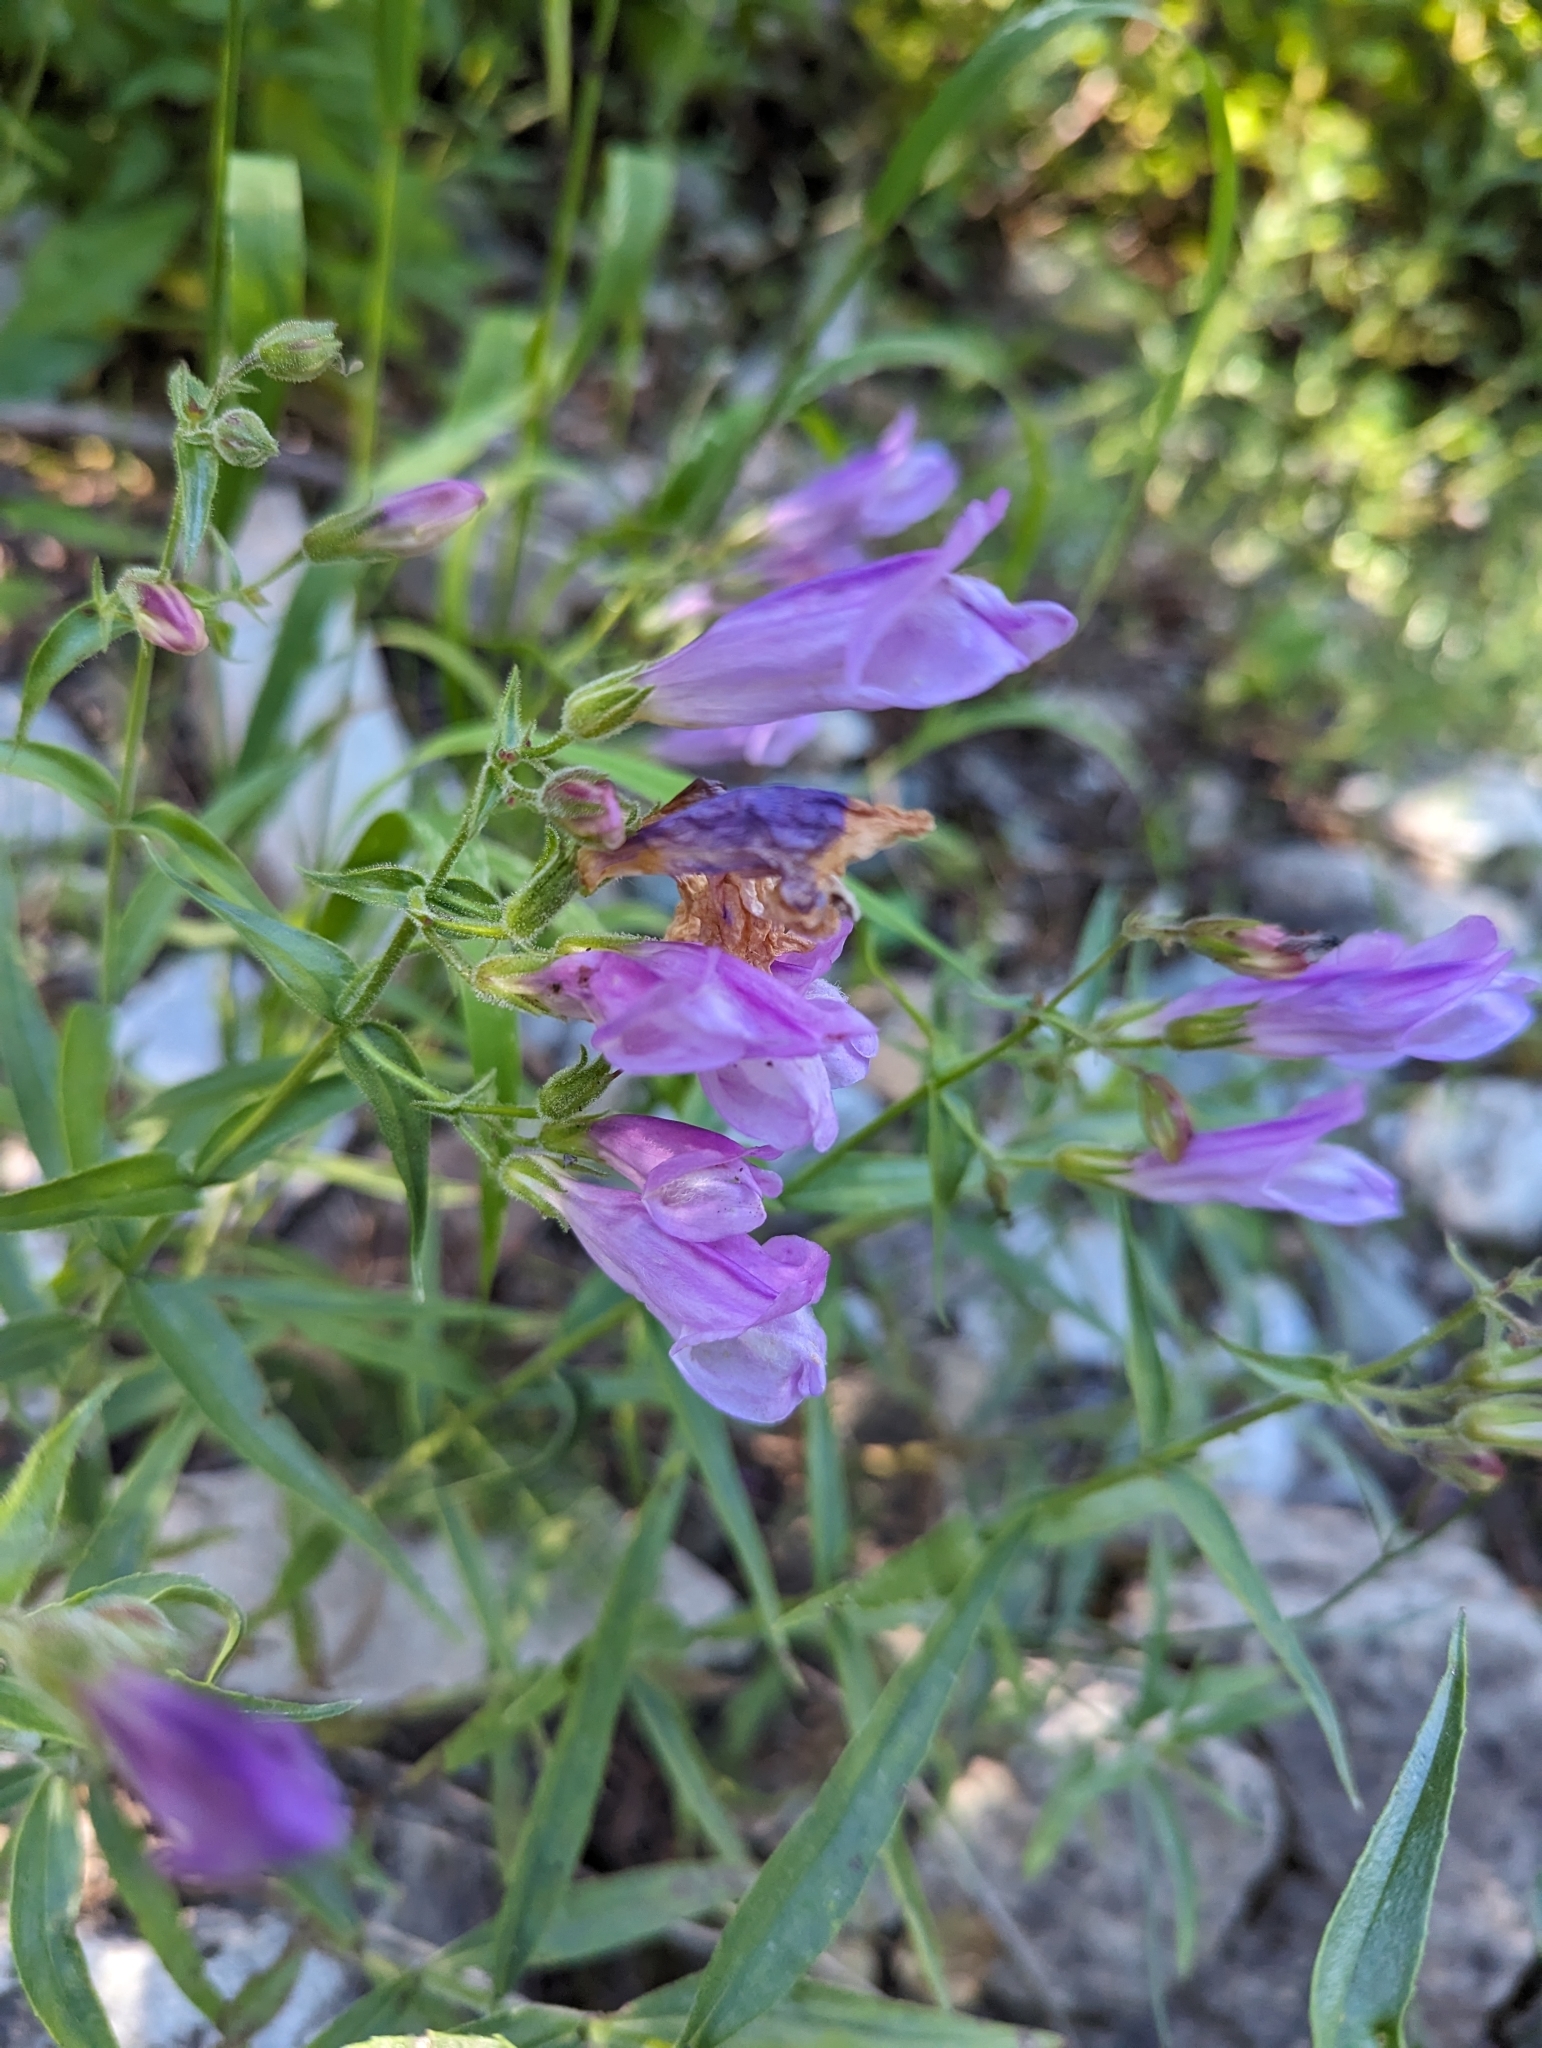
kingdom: Plantae
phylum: Tracheophyta
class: Magnoliopsida
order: Lamiales
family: Plantaginaceae
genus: Penstemon
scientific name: Penstemon lyalli
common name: Lyall's beardtongue
